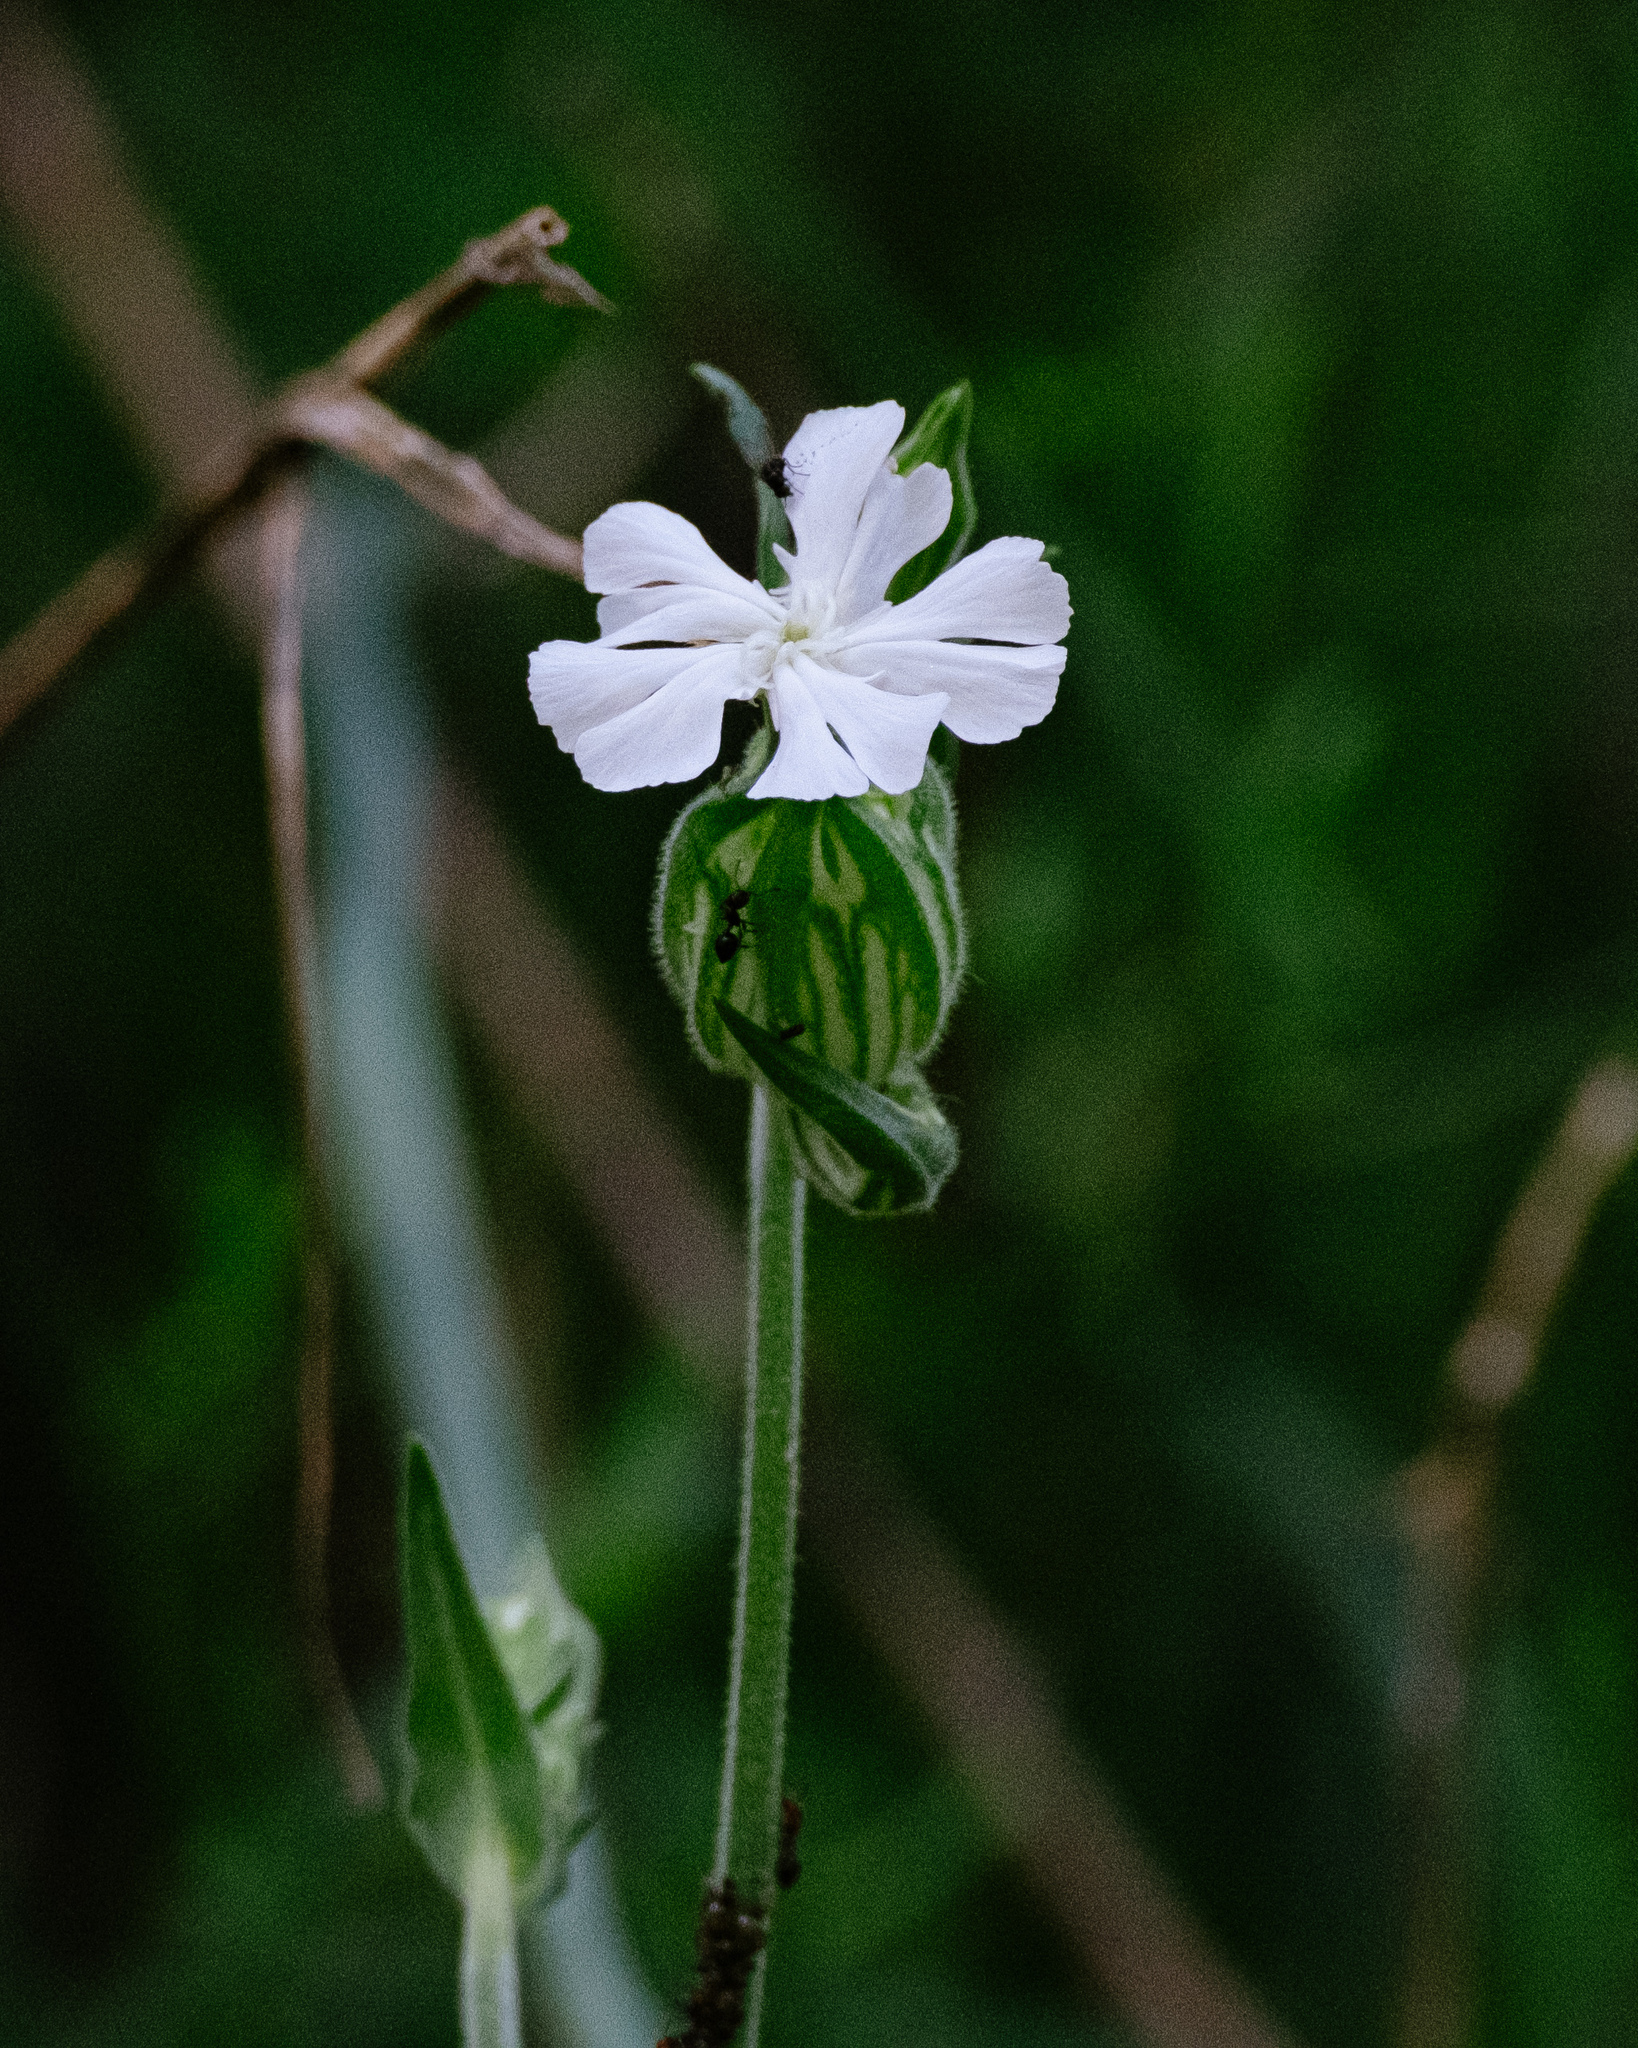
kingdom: Plantae
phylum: Tracheophyta
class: Magnoliopsida
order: Caryophyllales
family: Caryophyllaceae
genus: Silene
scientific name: Silene latifolia
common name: White campion
